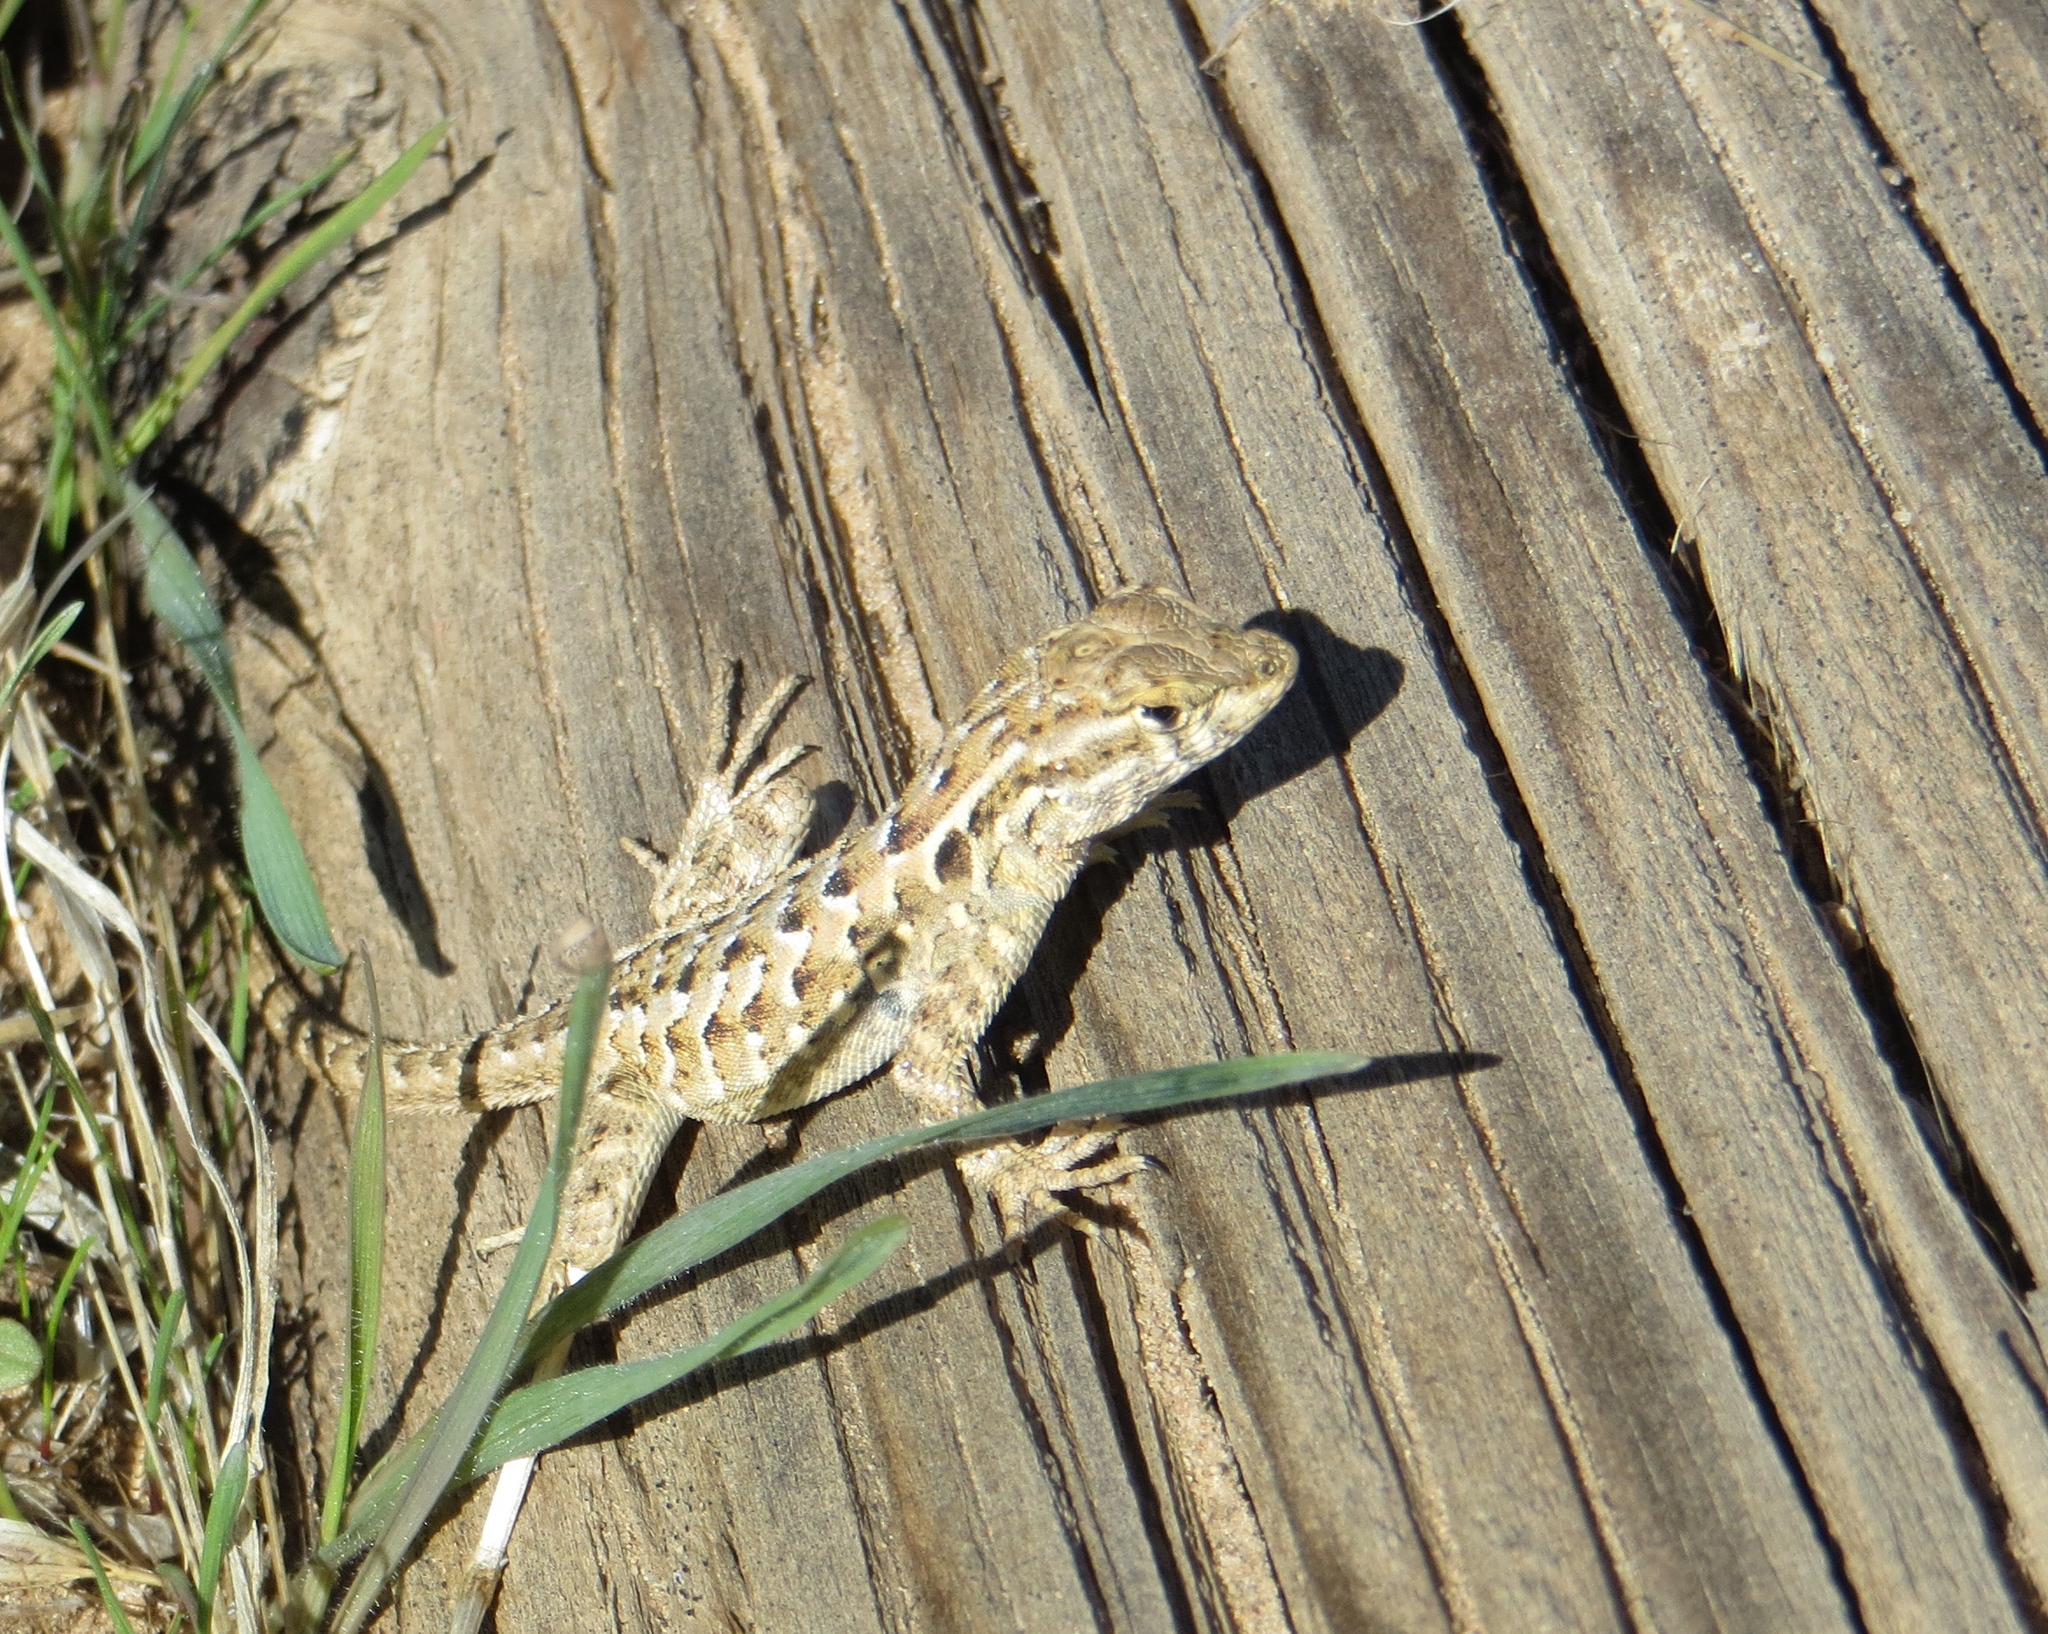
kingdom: Animalia
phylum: Chordata
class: Squamata
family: Phrynosomatidae
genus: Uta
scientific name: Uta stansburiana
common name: Side-blotched lizard
